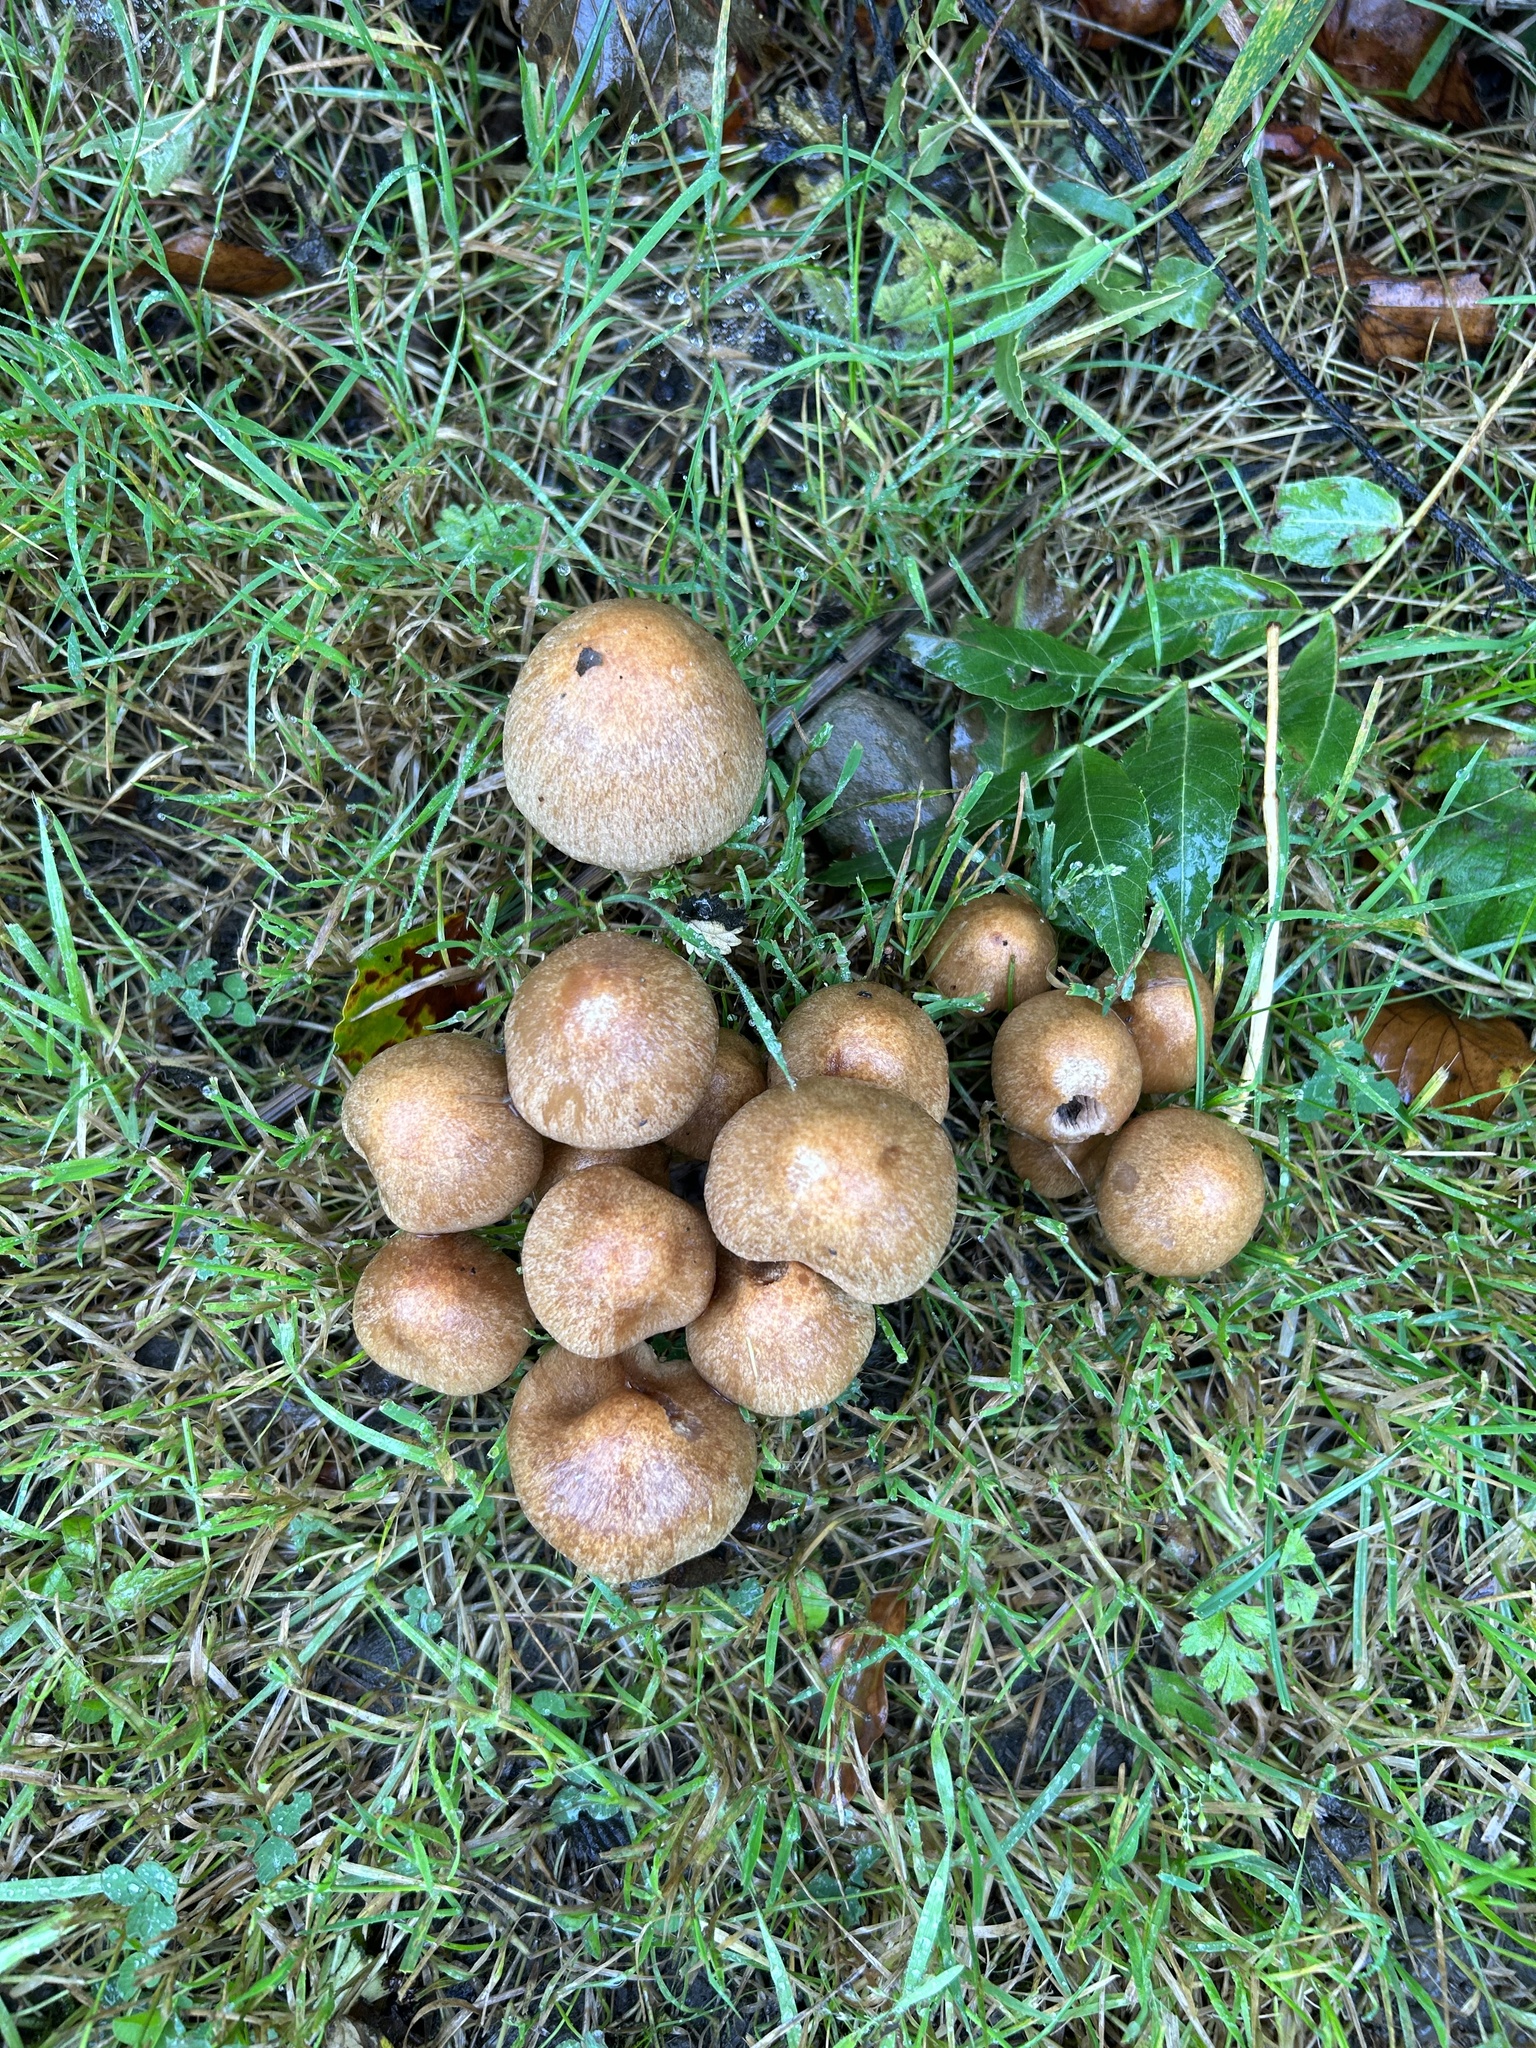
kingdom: Fungi
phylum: Basidiomycota
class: Agaricomycetes
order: Agaricales
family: Psathyrellaceae
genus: Lacrymaria
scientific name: Lacrymaria lacrymabunda
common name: Weeping widow
